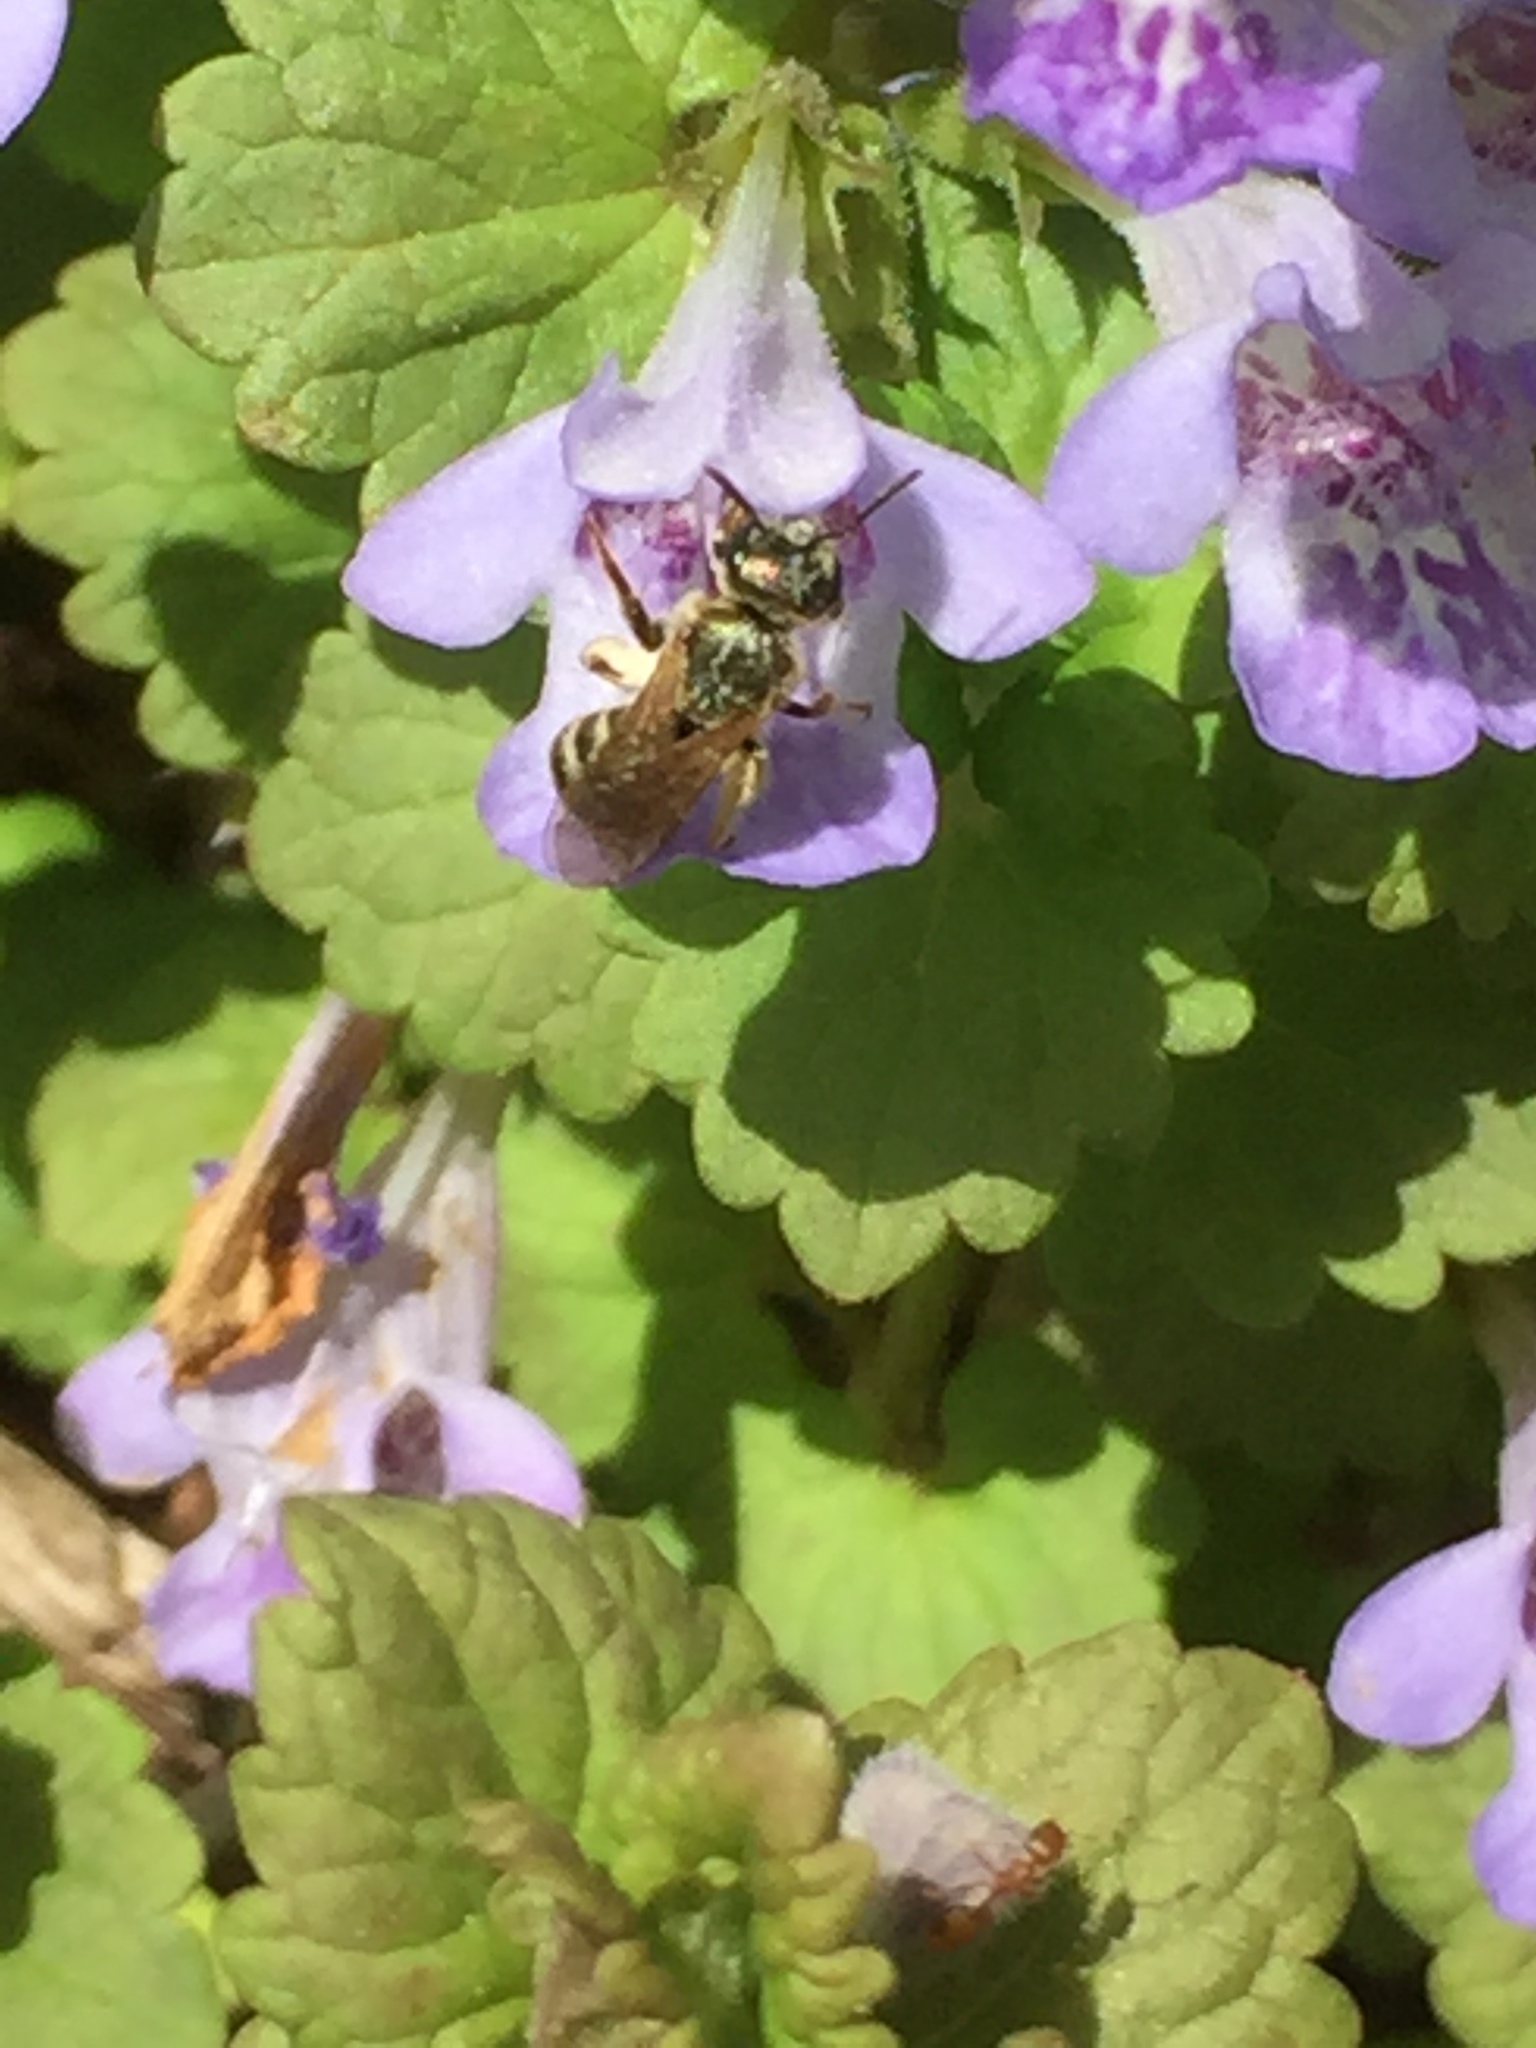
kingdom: Animalia
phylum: Arthropoda
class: Insecta
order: Hymenoptera
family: Halictidae
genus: Halictus
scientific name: Halictus confusus
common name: Southern bronze furrow bee
